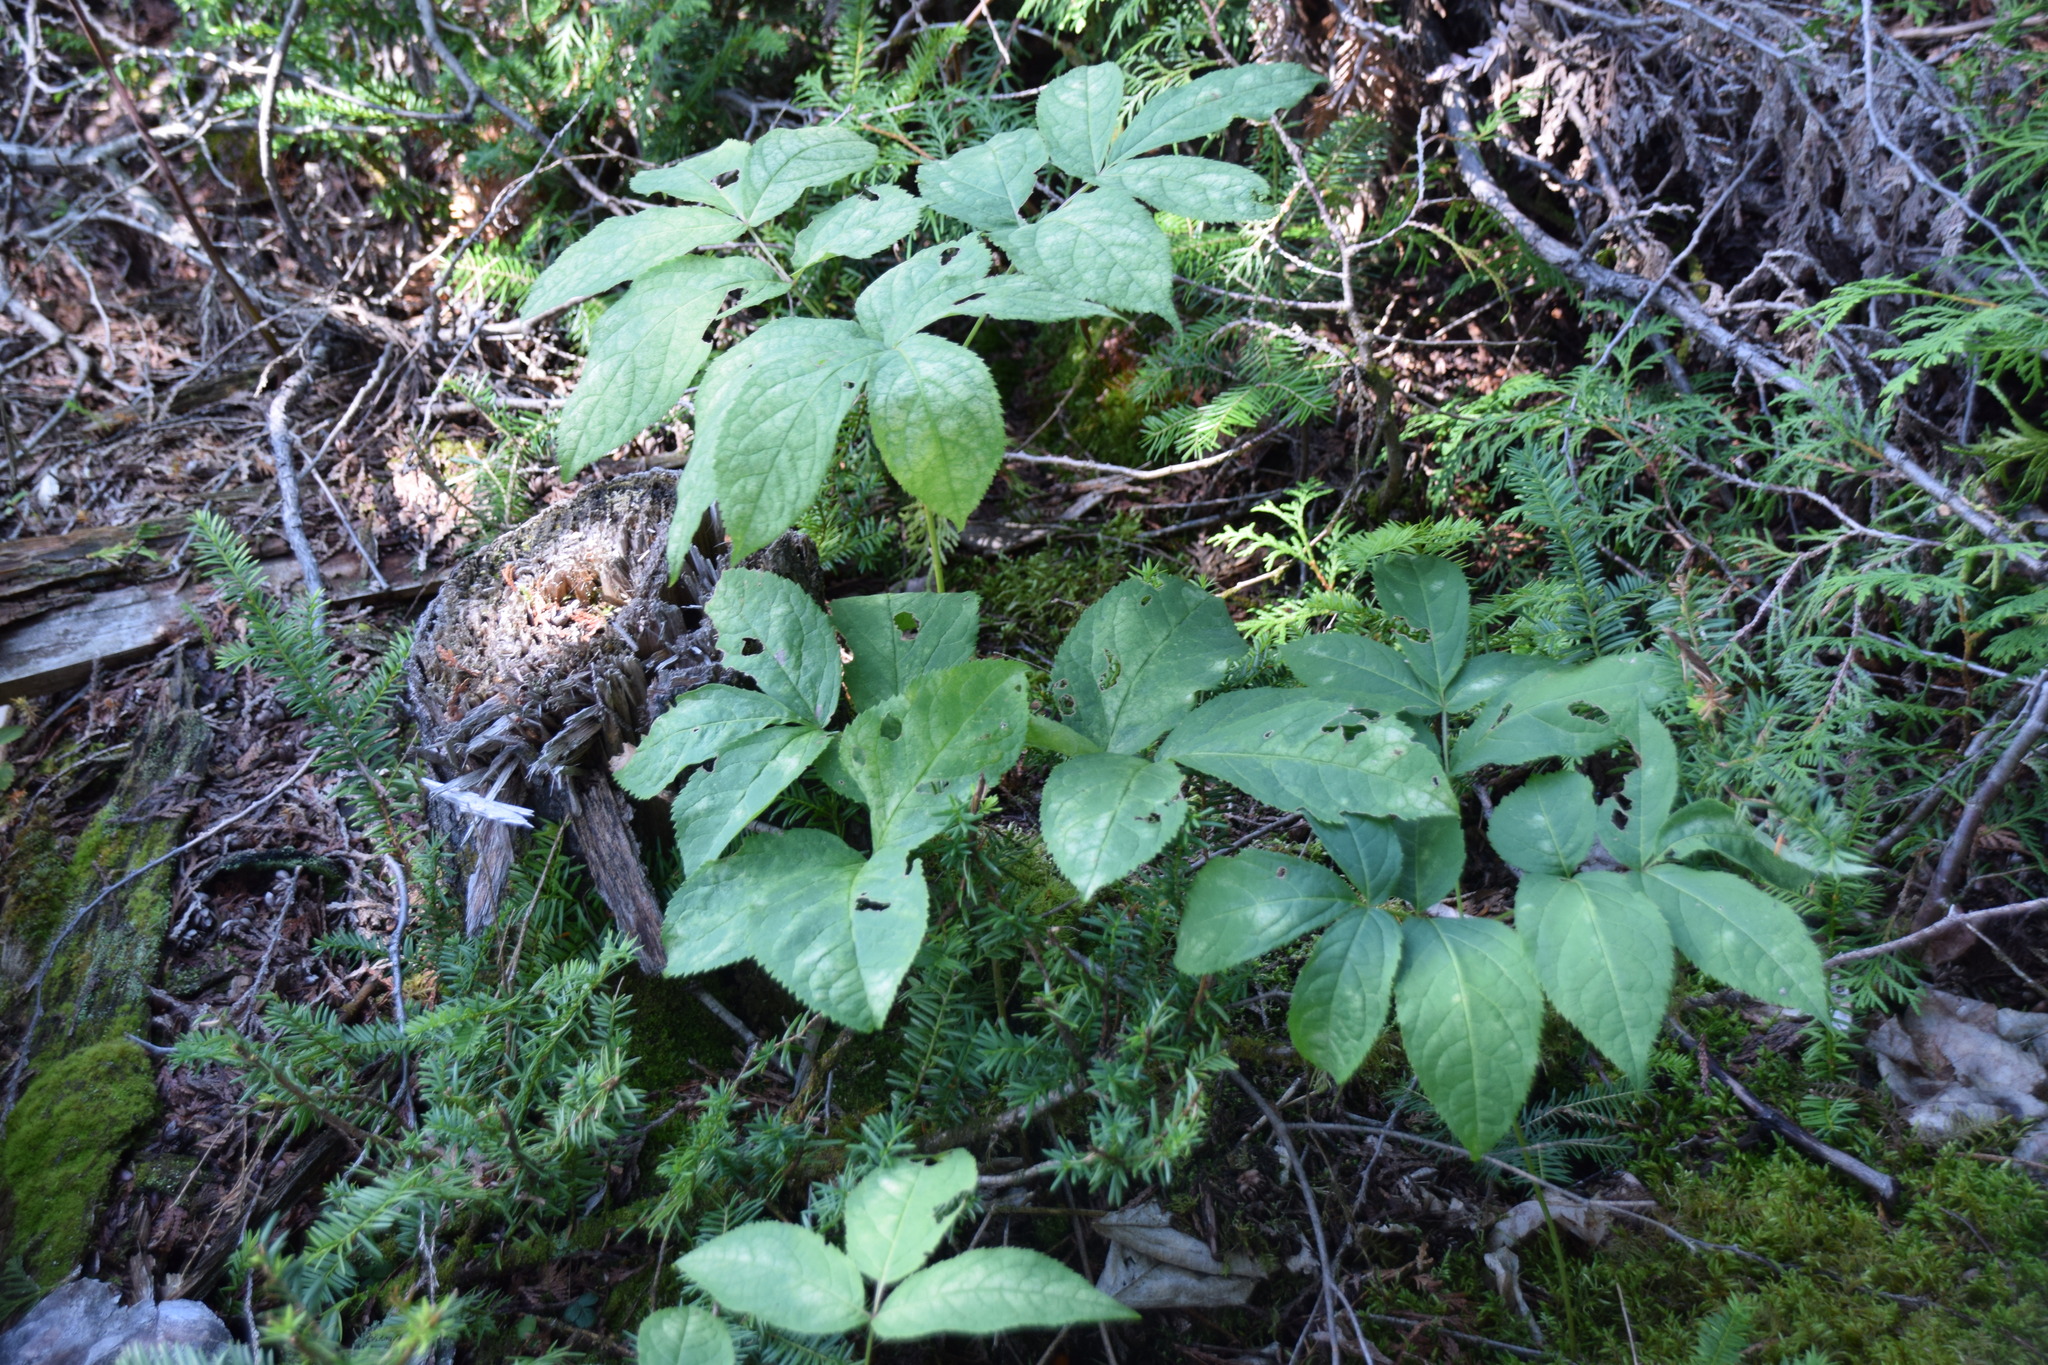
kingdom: Plantae
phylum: Tracheophyta
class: Magnoliopsida
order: Apiales
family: Araliaceae
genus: Aralia
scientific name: Aralia nudicaulis
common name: Wild sarsaparilla
